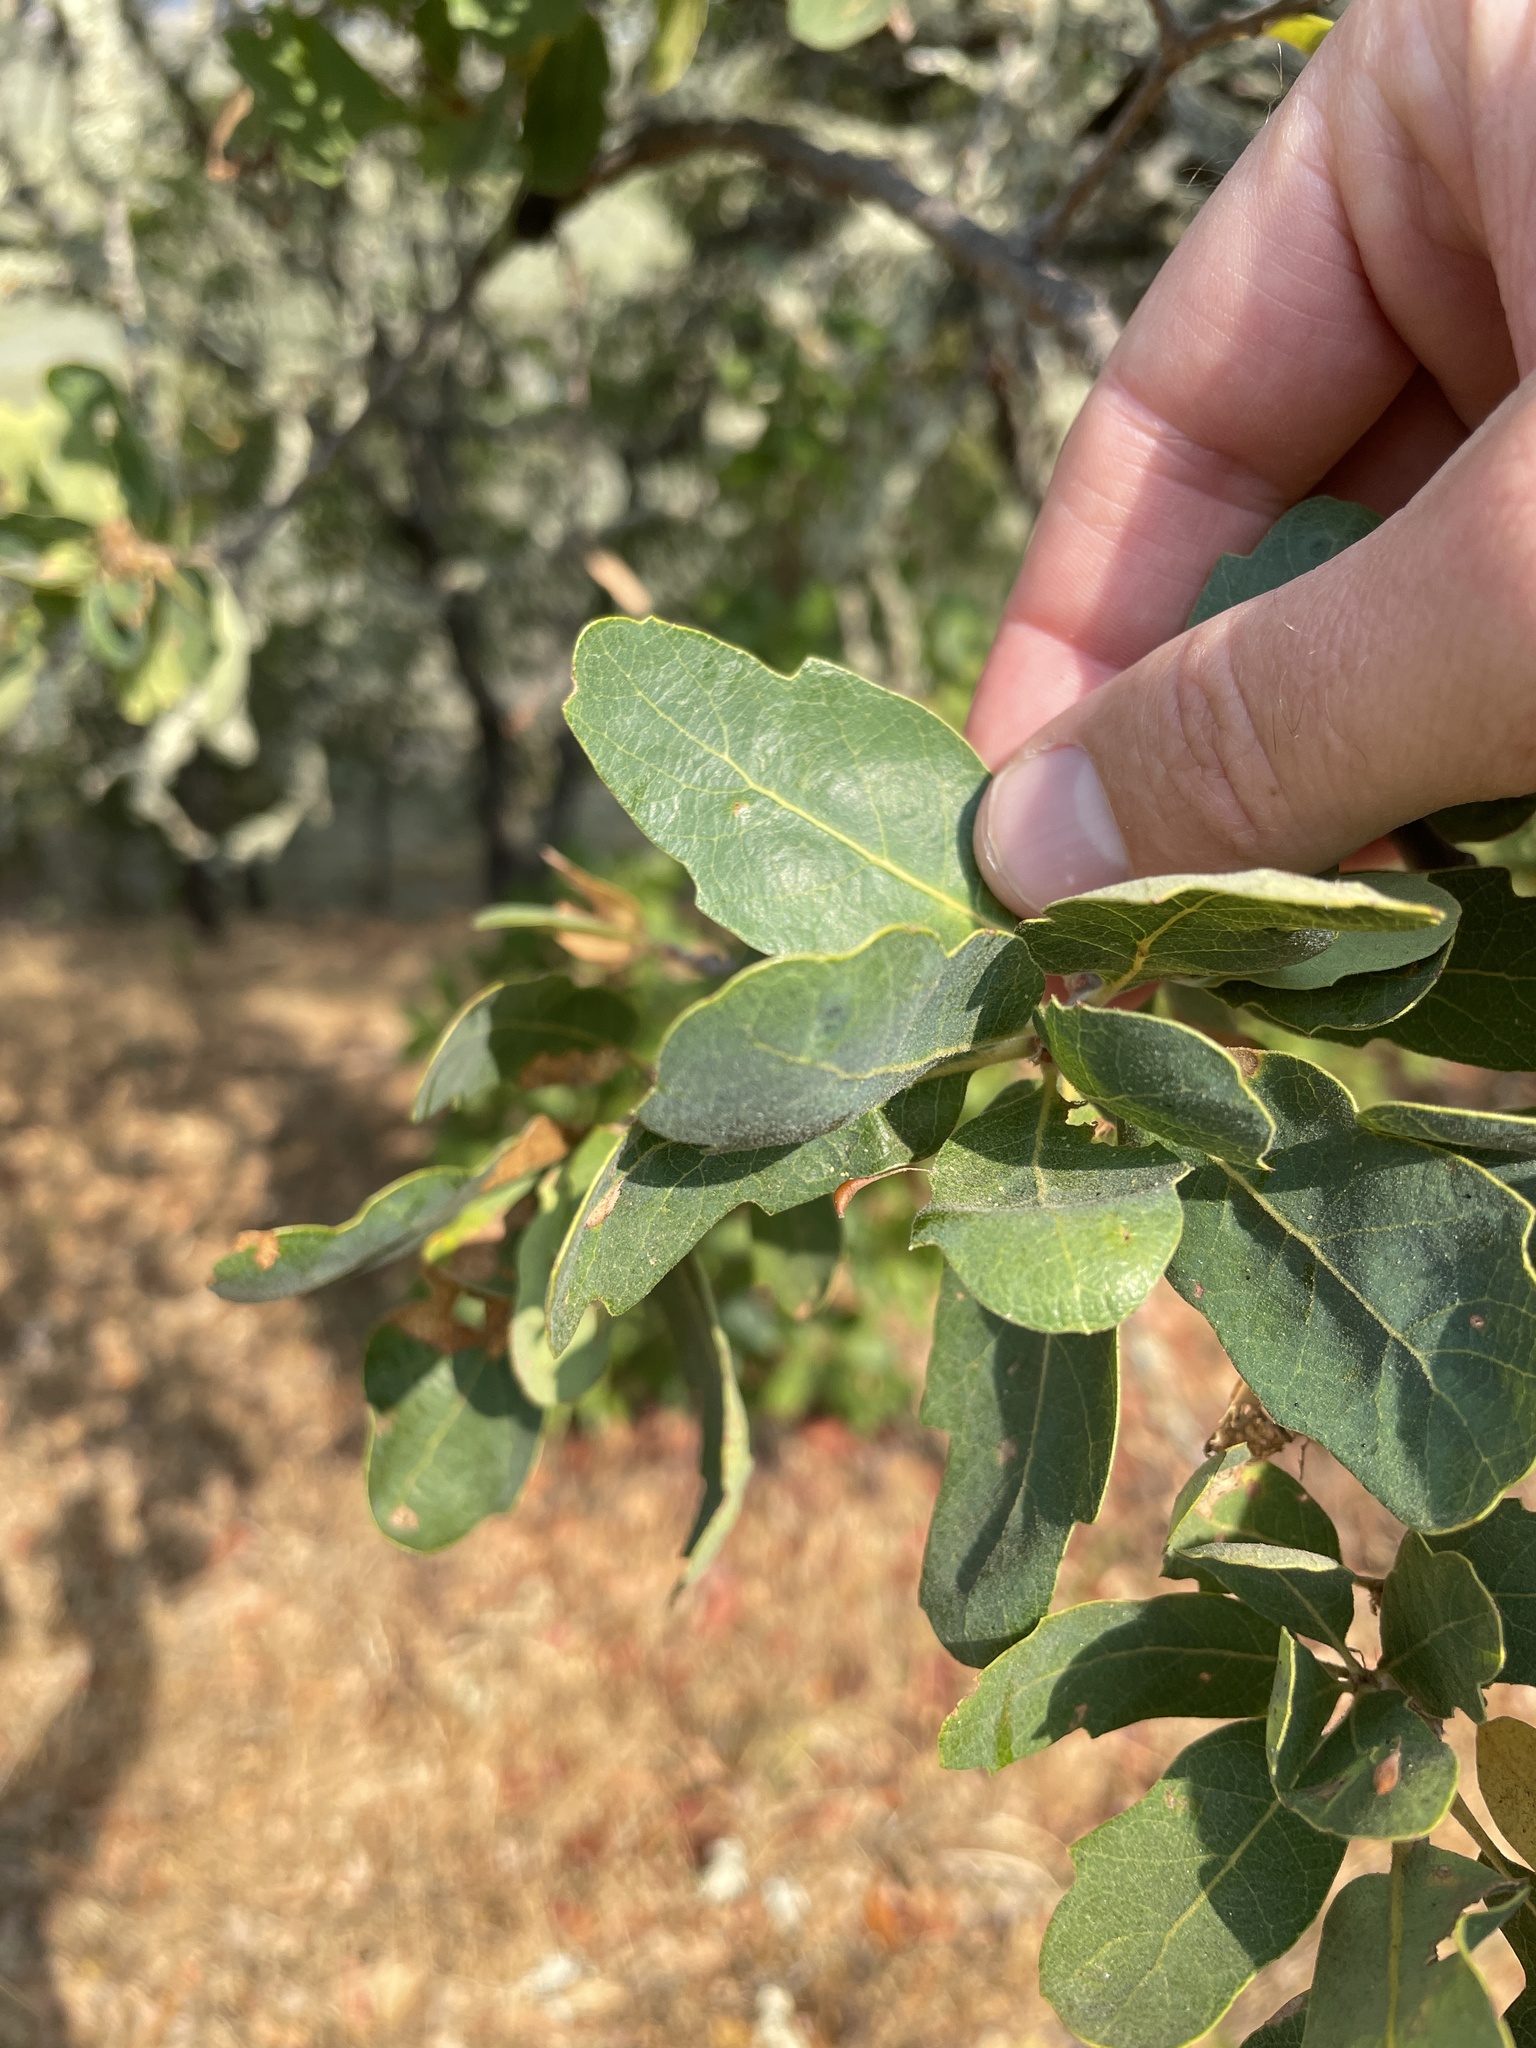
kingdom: Plantae
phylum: Tracheophyta
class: Magnoliopsida
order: Fagales
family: Fagaceae
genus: Quercus
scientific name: Quercus douglasii
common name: Blue oak
